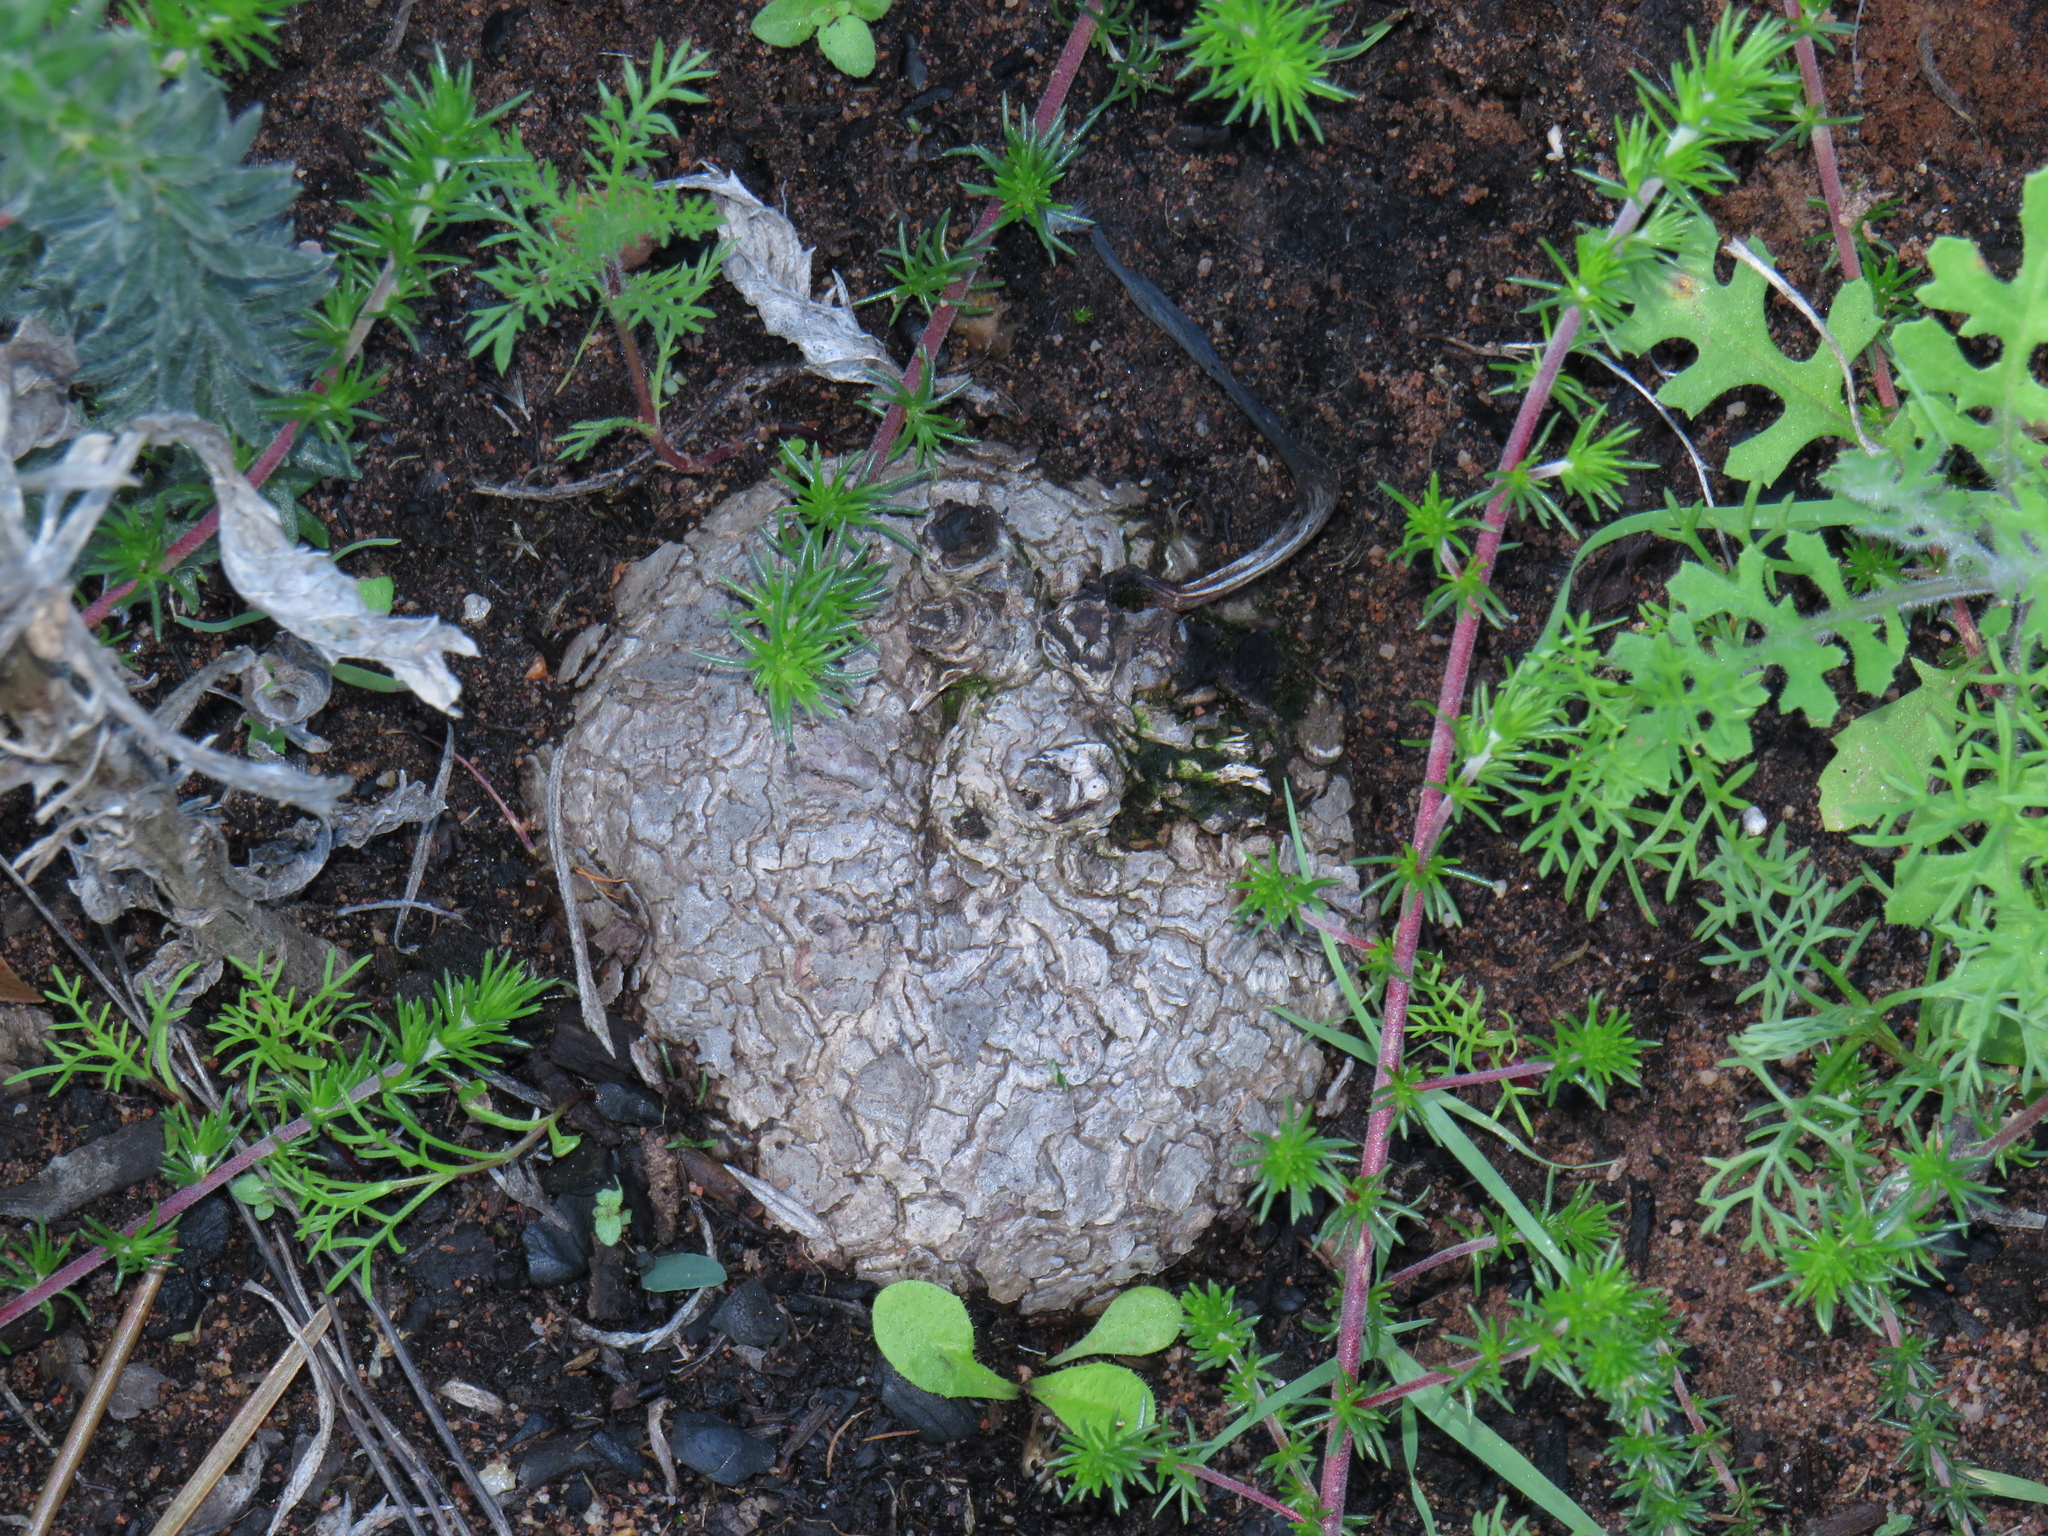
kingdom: Plantae
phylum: Tracheophyta
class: Magnoliopsida
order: Geraniales
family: Geraniaceae
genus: Pelargonium
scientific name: Pelargonium triste
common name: Night-scent pelargonium
